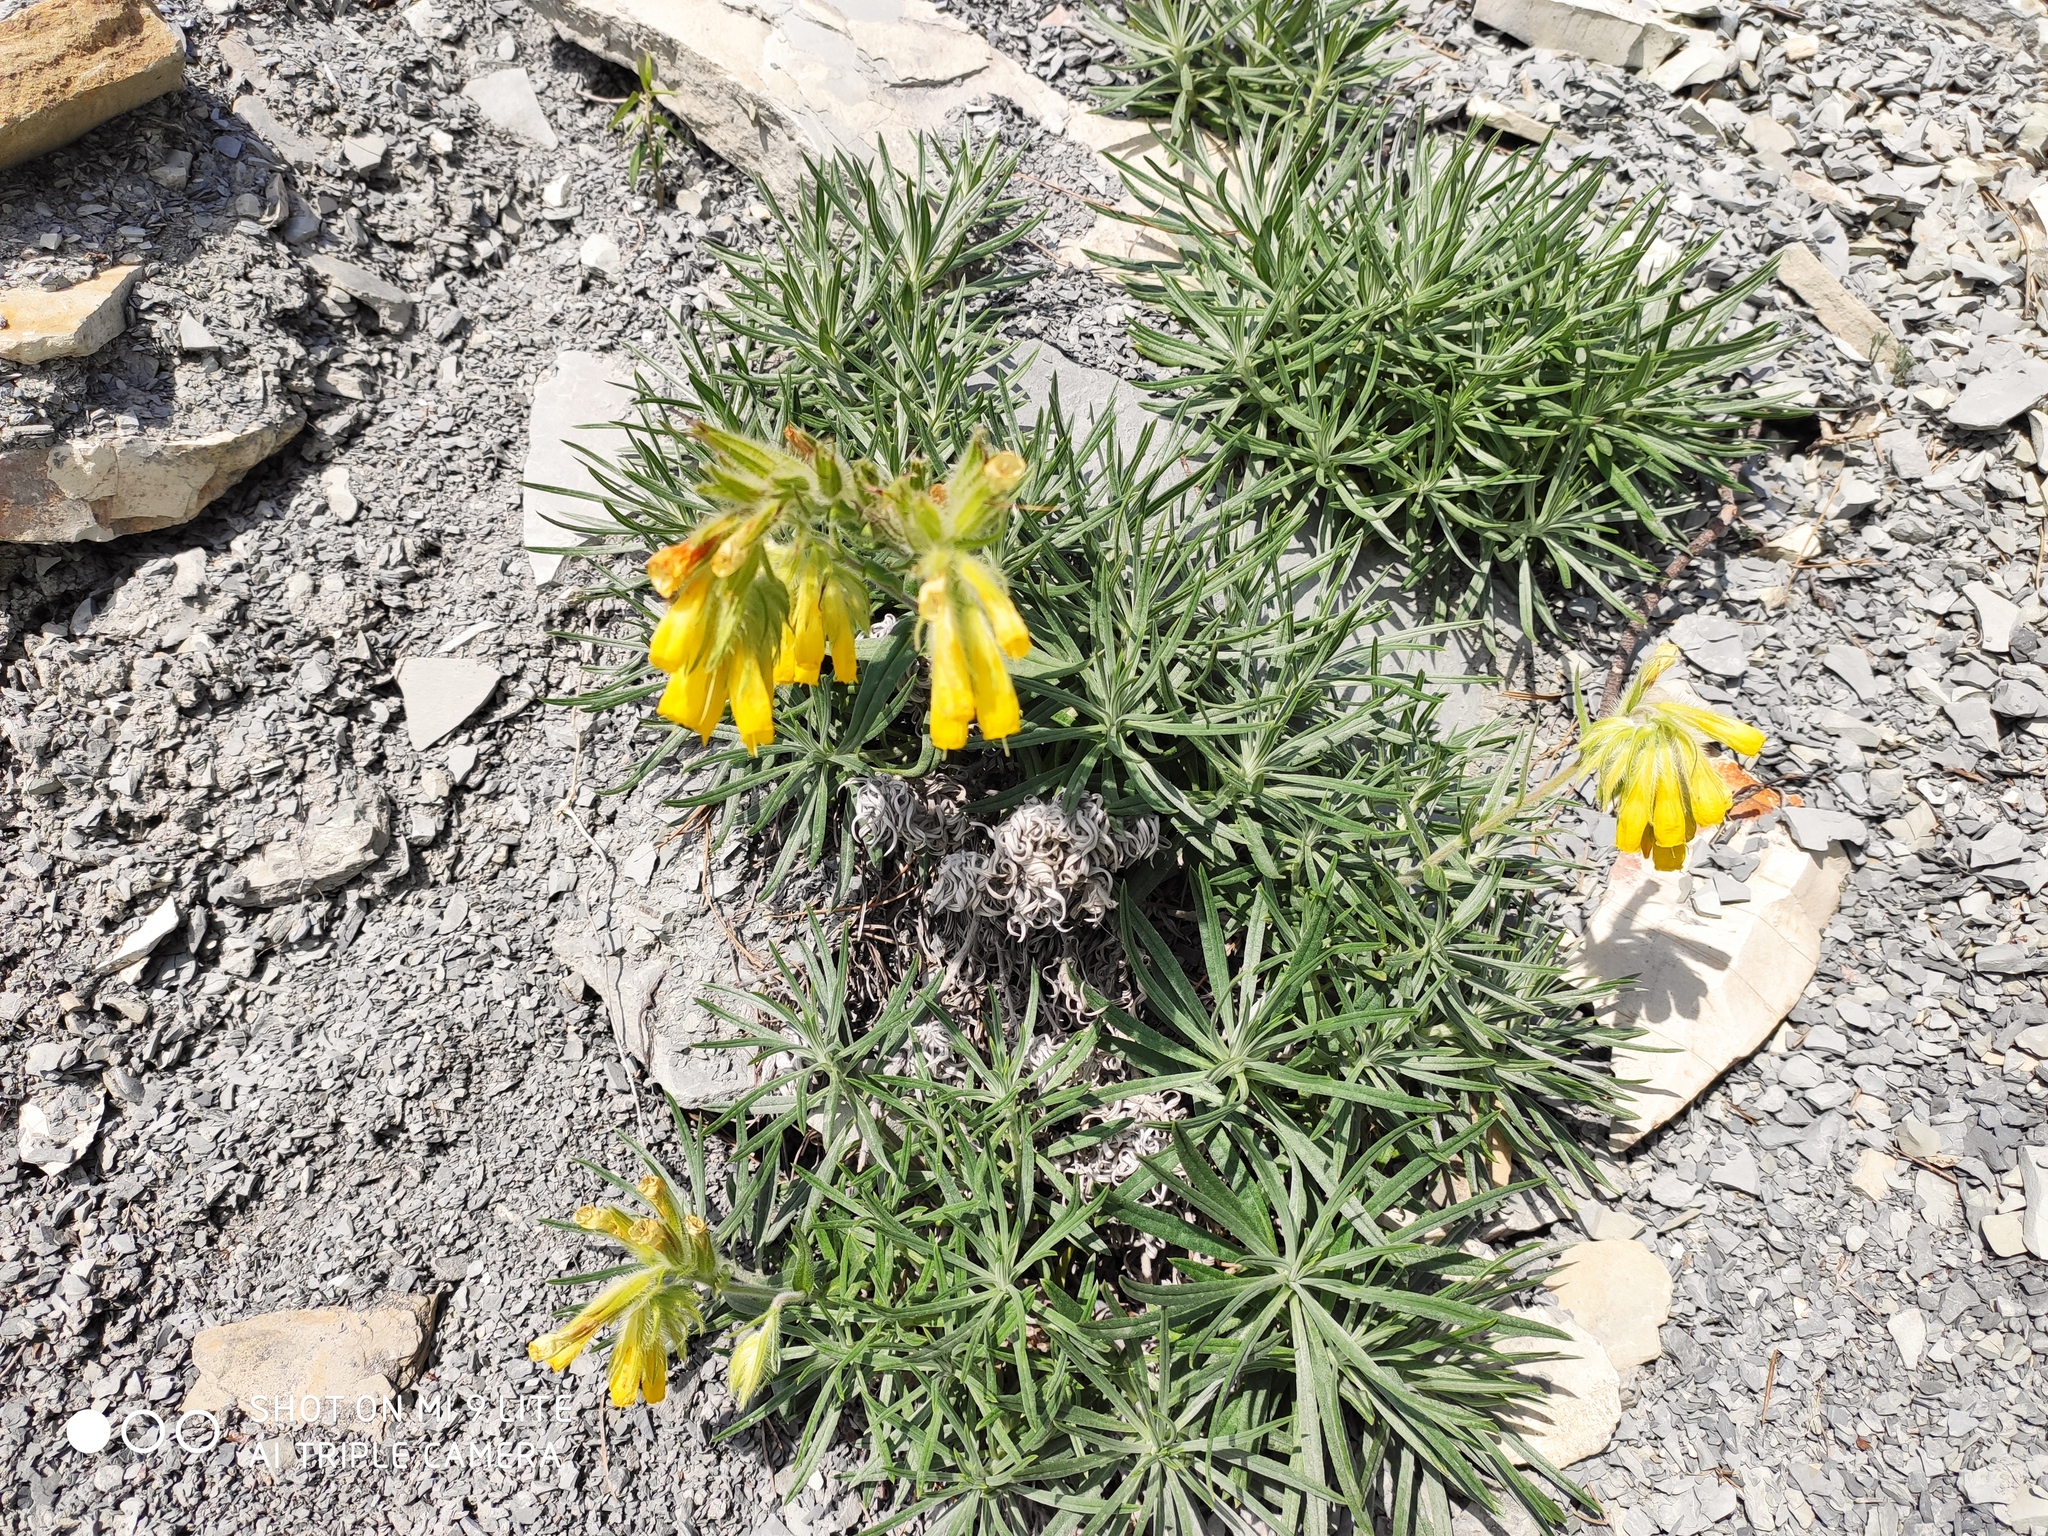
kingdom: Plantae
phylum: Tracheophyta
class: Magnoliopsida
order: Boraginales
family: Boraginaceae
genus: Onosma
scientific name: Onosma polyphylla
